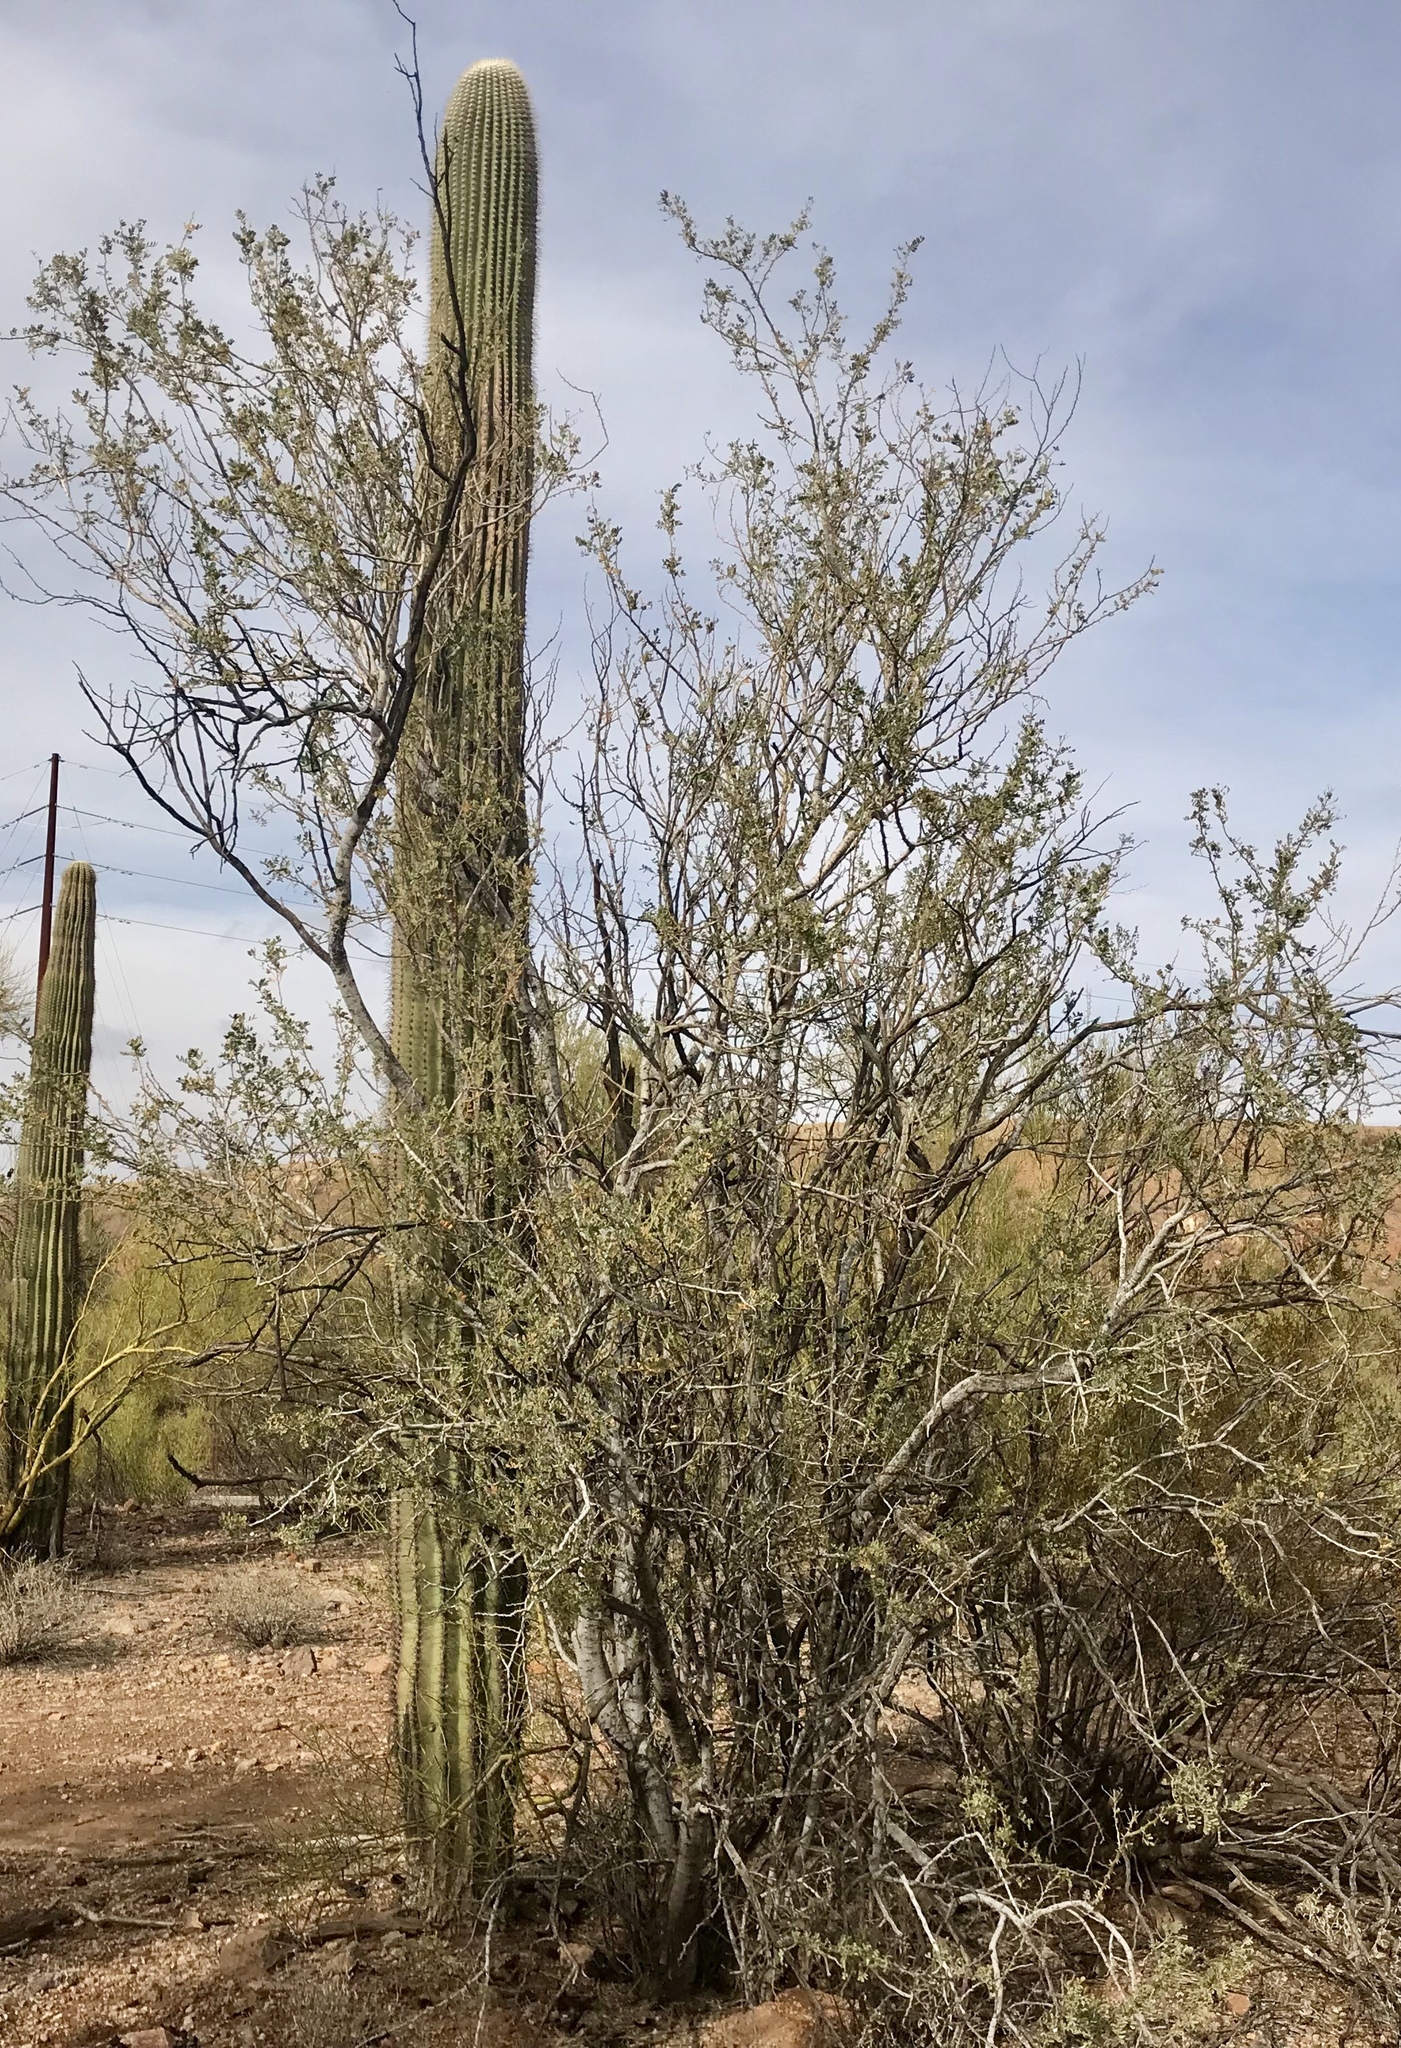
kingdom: Plantae
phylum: Tracheophyta
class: Magnoliopsida
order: Caryophyllales
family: Cactaceae
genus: Carnegiea
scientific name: Carnegiea gigantea
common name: Saguaro
